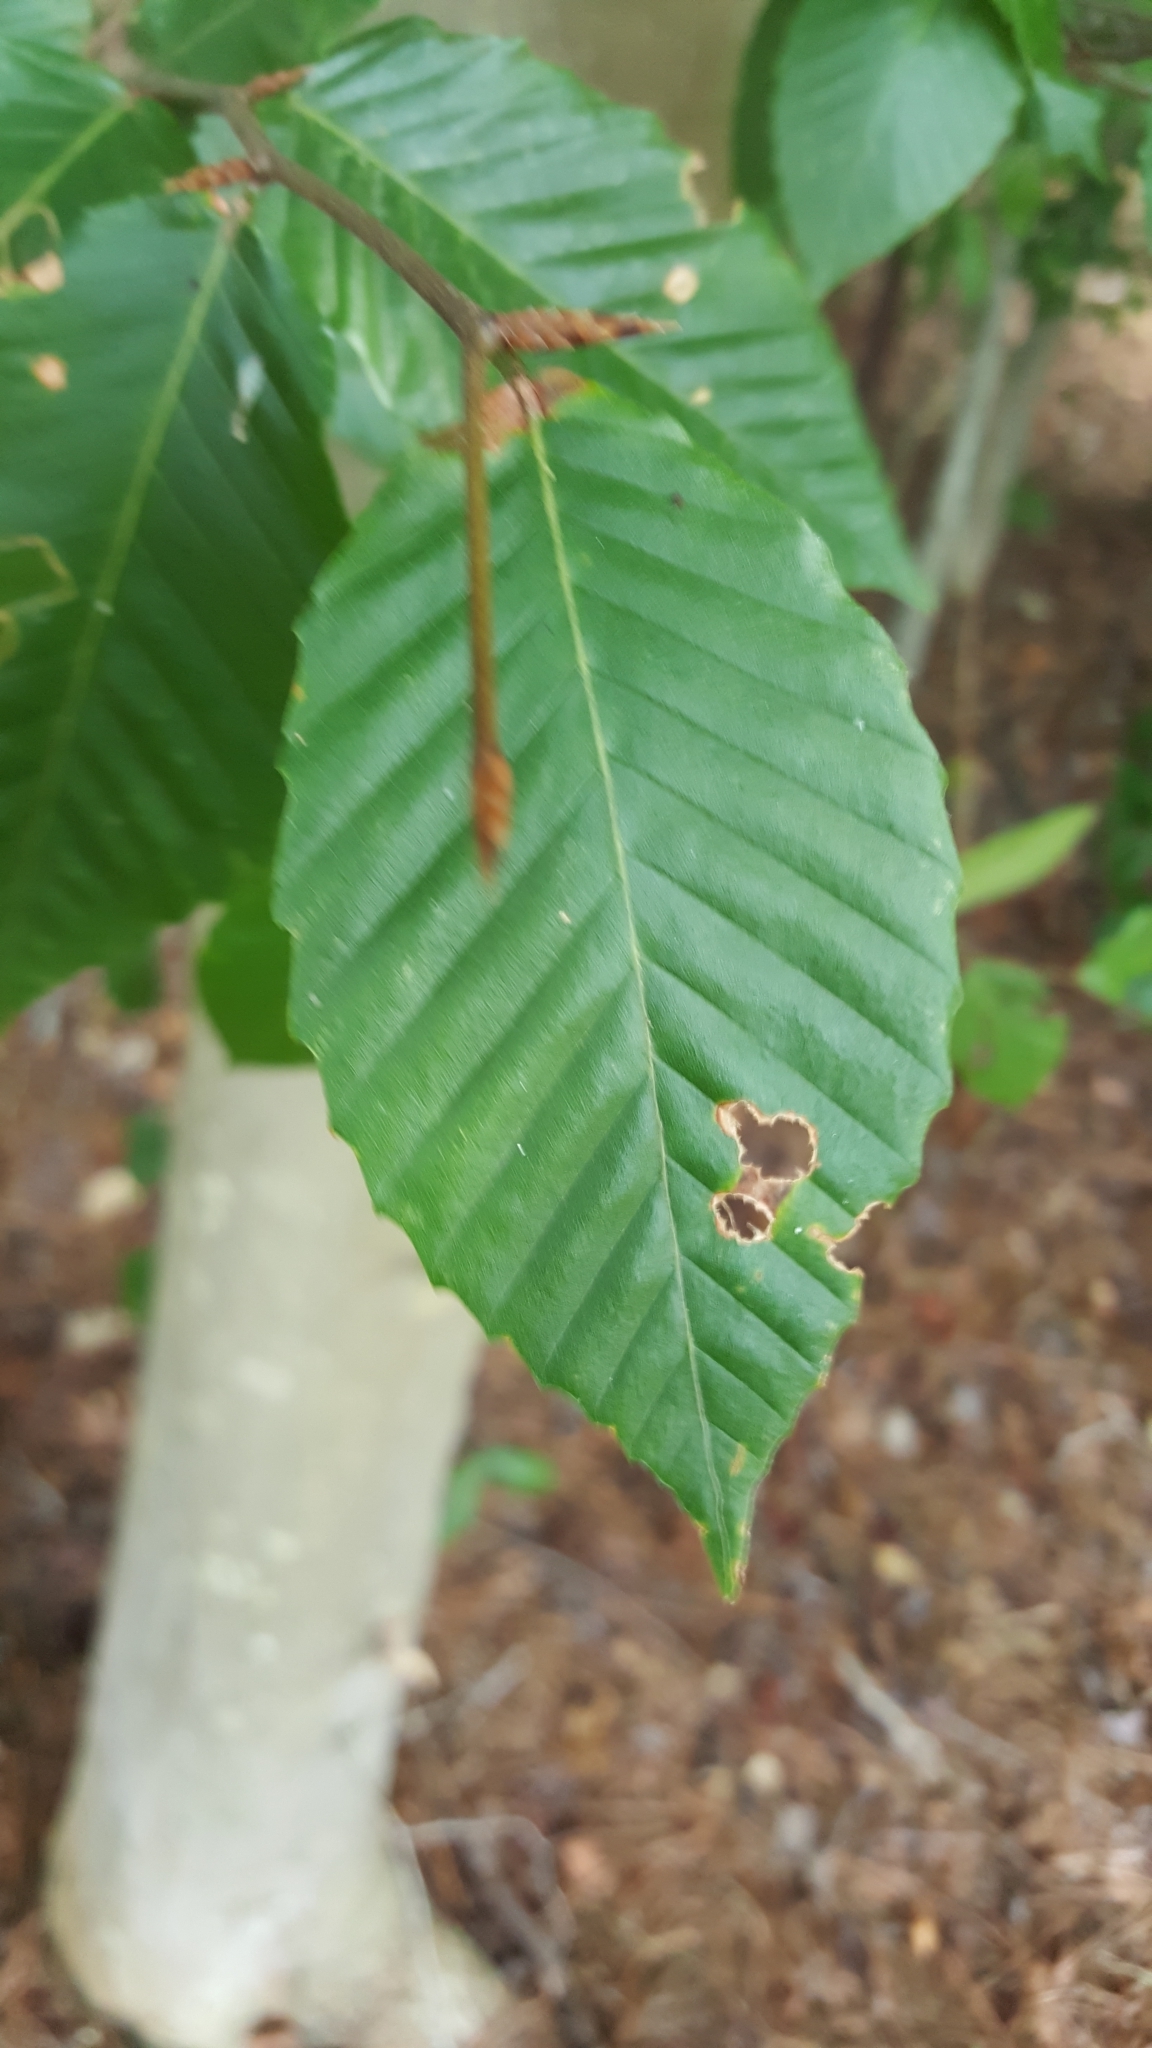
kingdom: Plantae
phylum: Tracheophyta
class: Magnoliopsida
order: Fagales
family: Fagaceae
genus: Fagus
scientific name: Fagus grandifolia
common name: American beech
